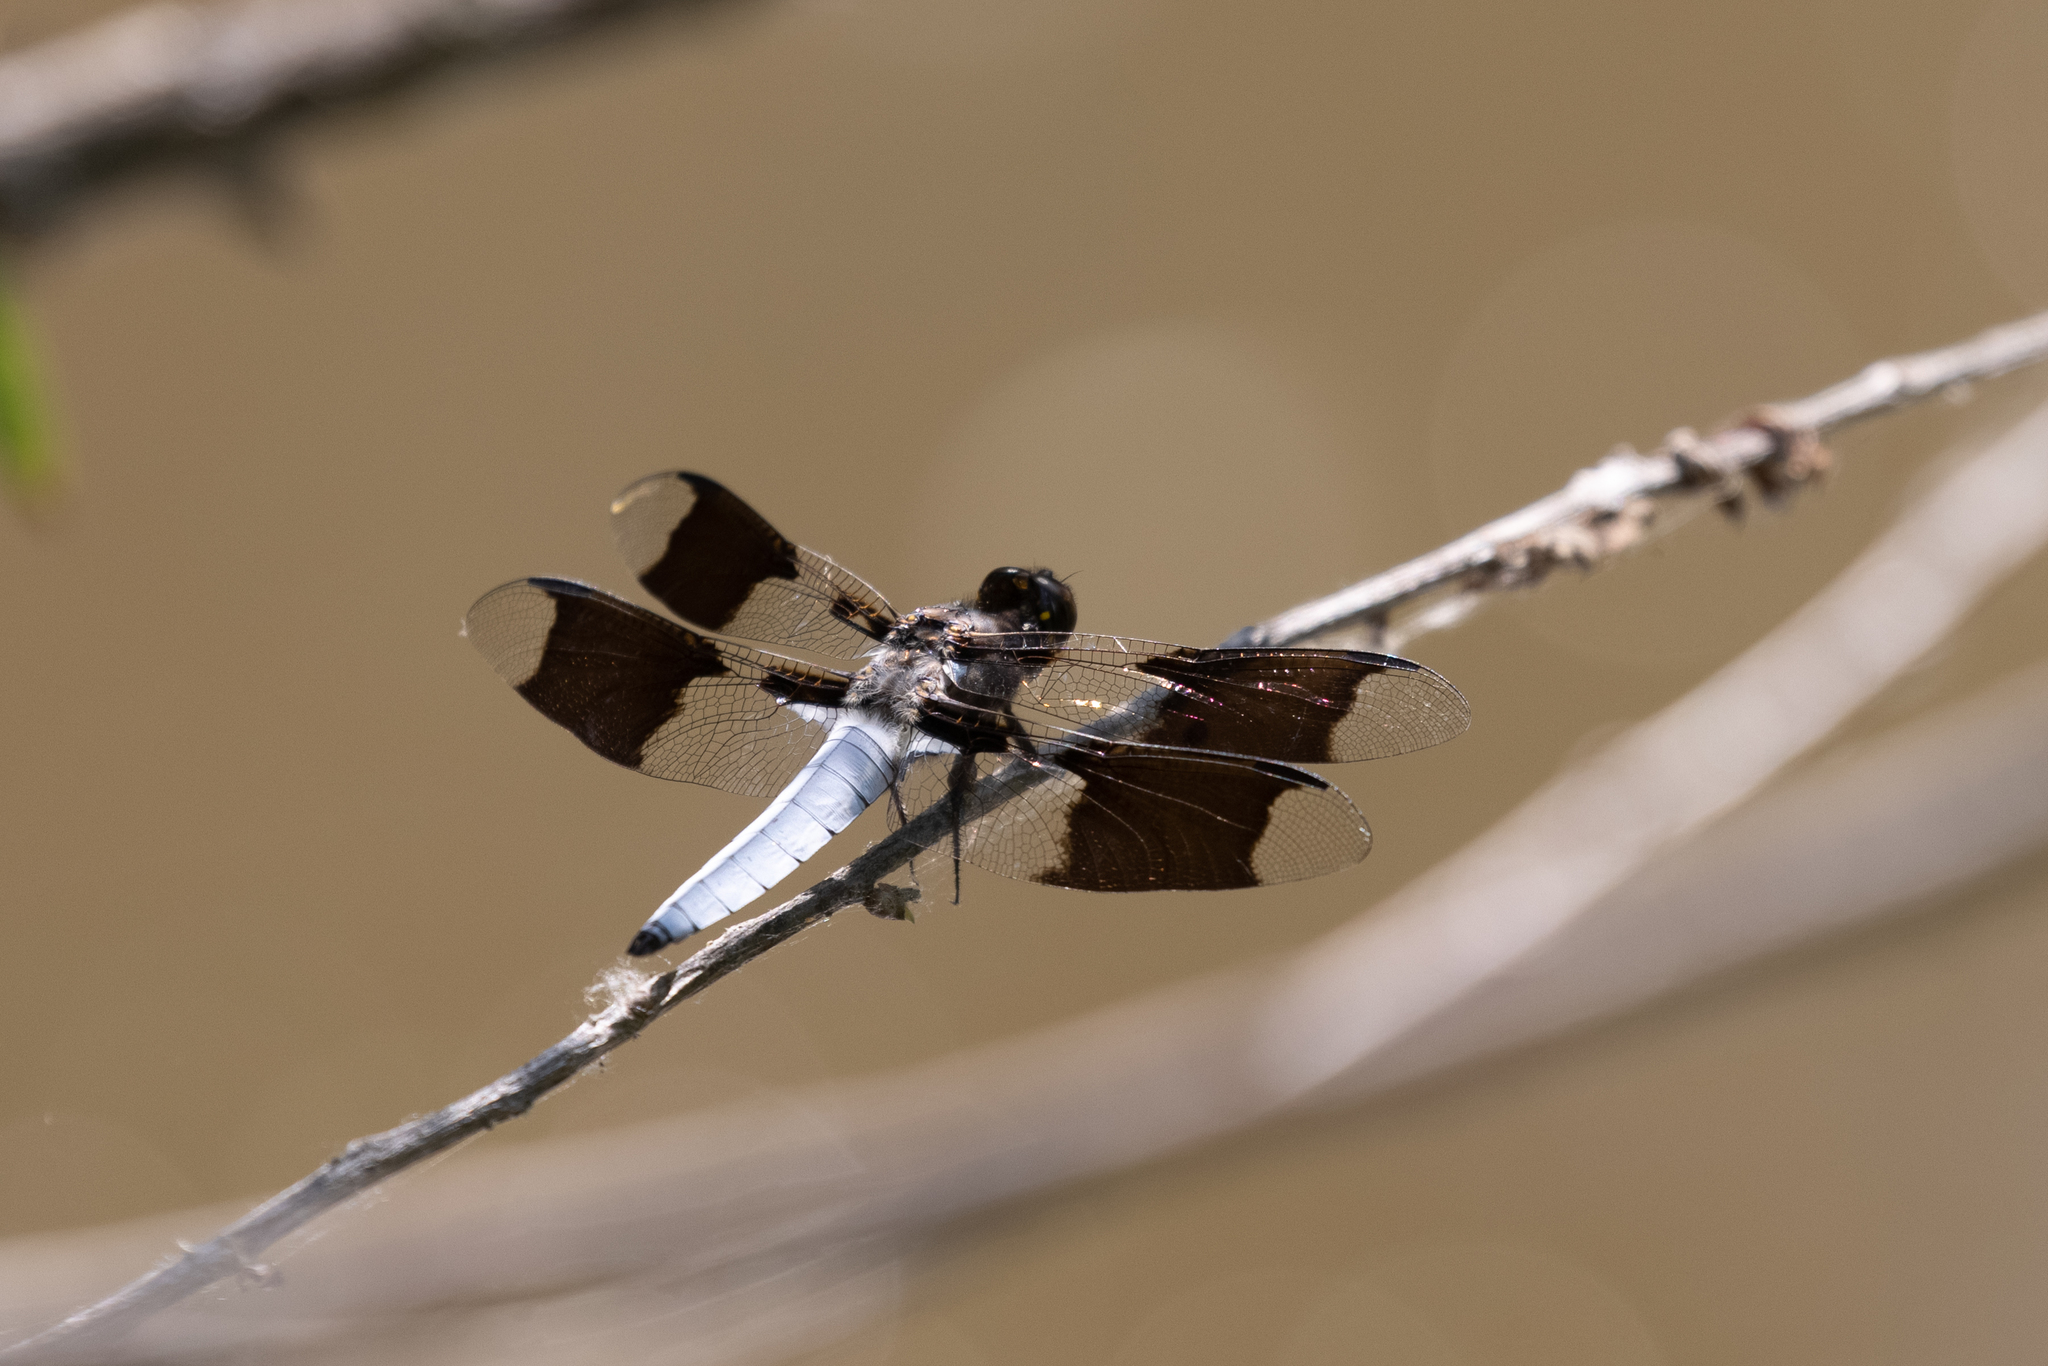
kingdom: Animalia
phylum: Arthropoda
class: Insecta
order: Odonata
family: Libellulidae
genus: Plathemis
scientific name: Plathemis lydia
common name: Common whitetail
